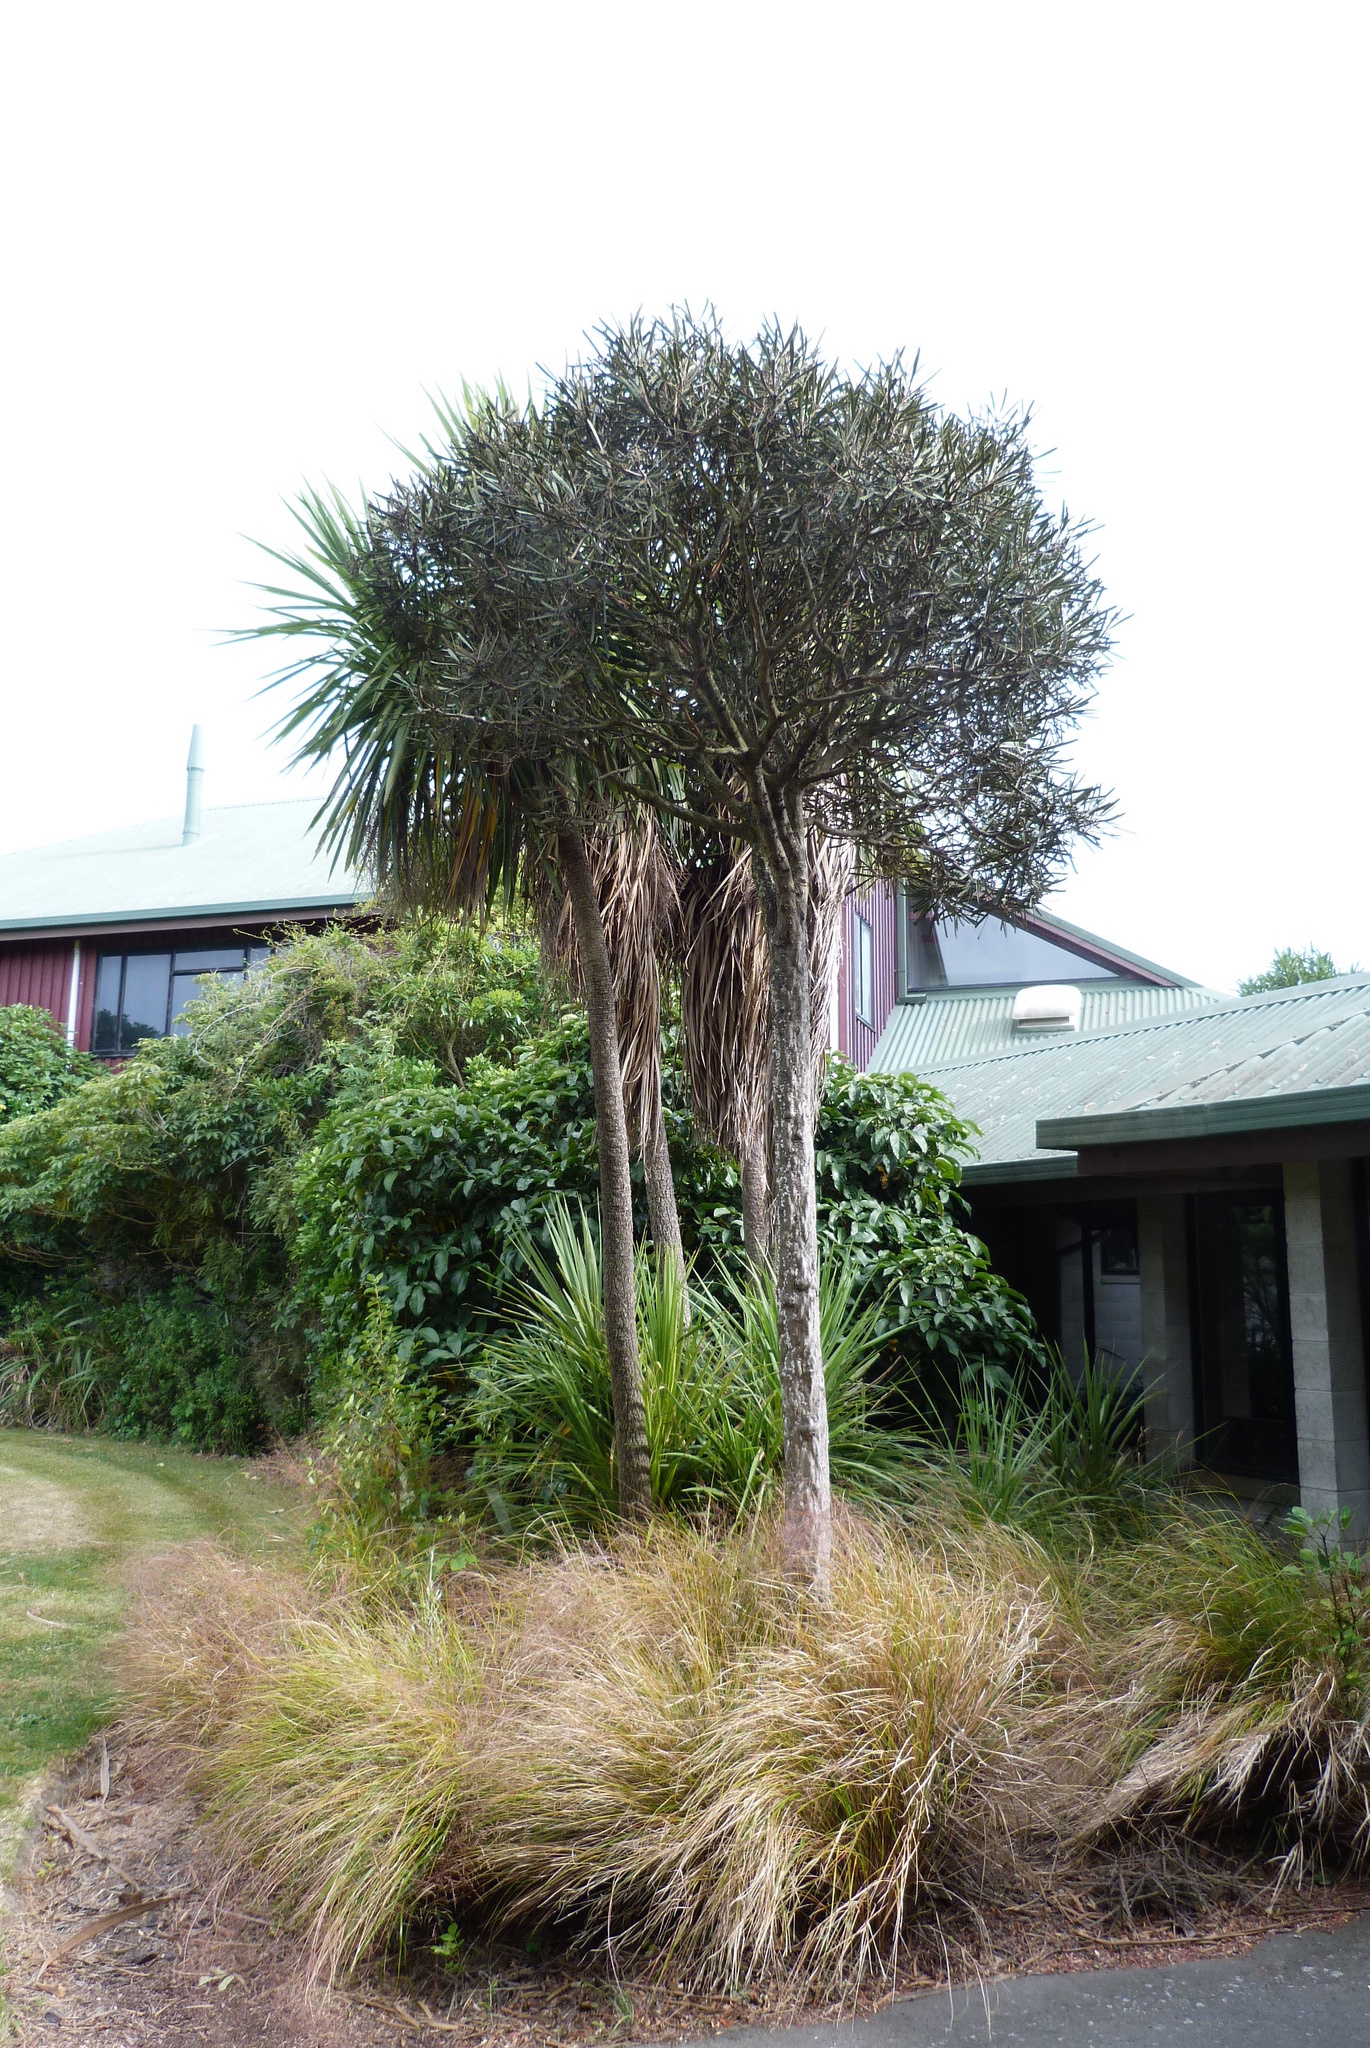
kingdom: Plantae
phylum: Tracheophyta
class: Magnoliopsida
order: Apiales
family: Araliaceae
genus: Pseudopanax
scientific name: Pseudopanax ferox
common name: Fierce lancewood
